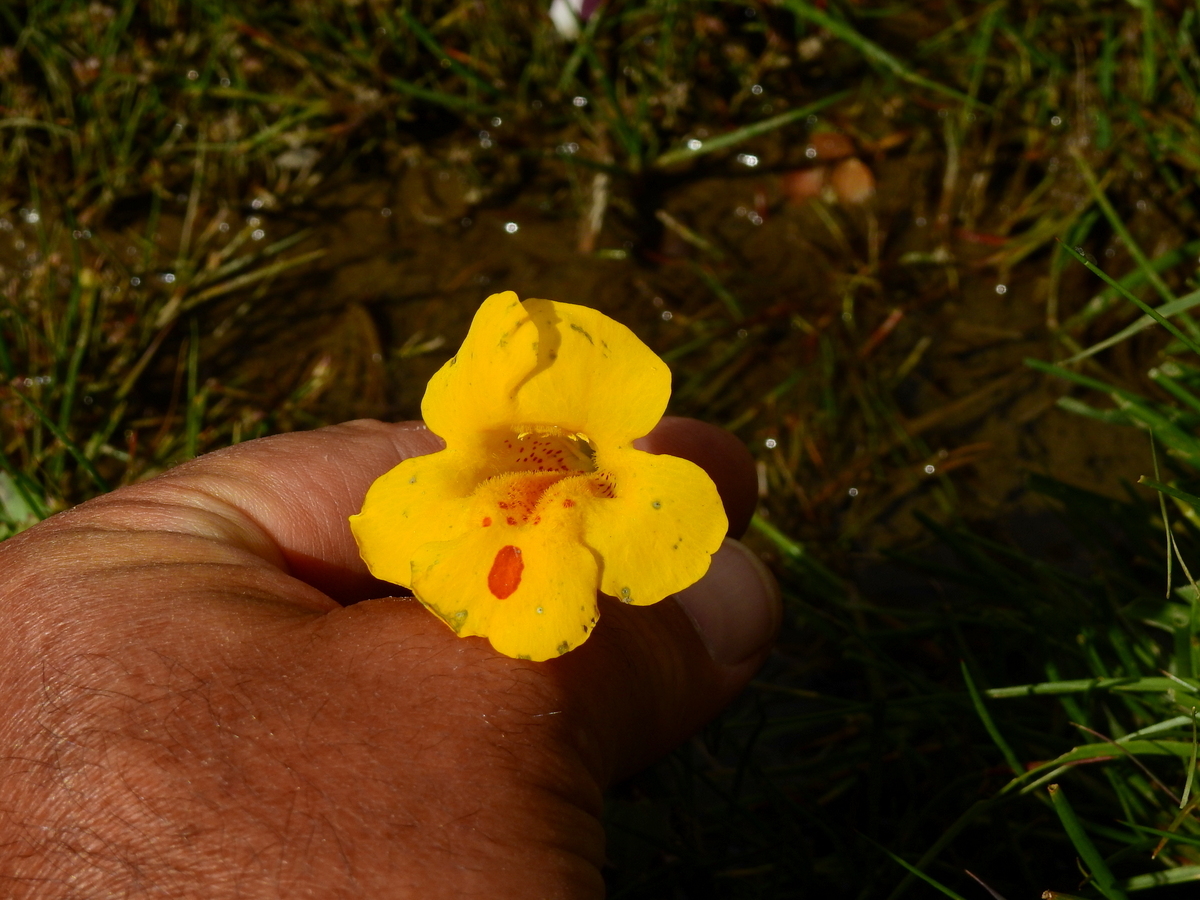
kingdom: Plantae
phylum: Tracheophyta
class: Magnoliopsida
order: Lamiales
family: Phrymaceae
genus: Erythranthe
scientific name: Erythranthe lutea
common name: Yellow monkey-flower
